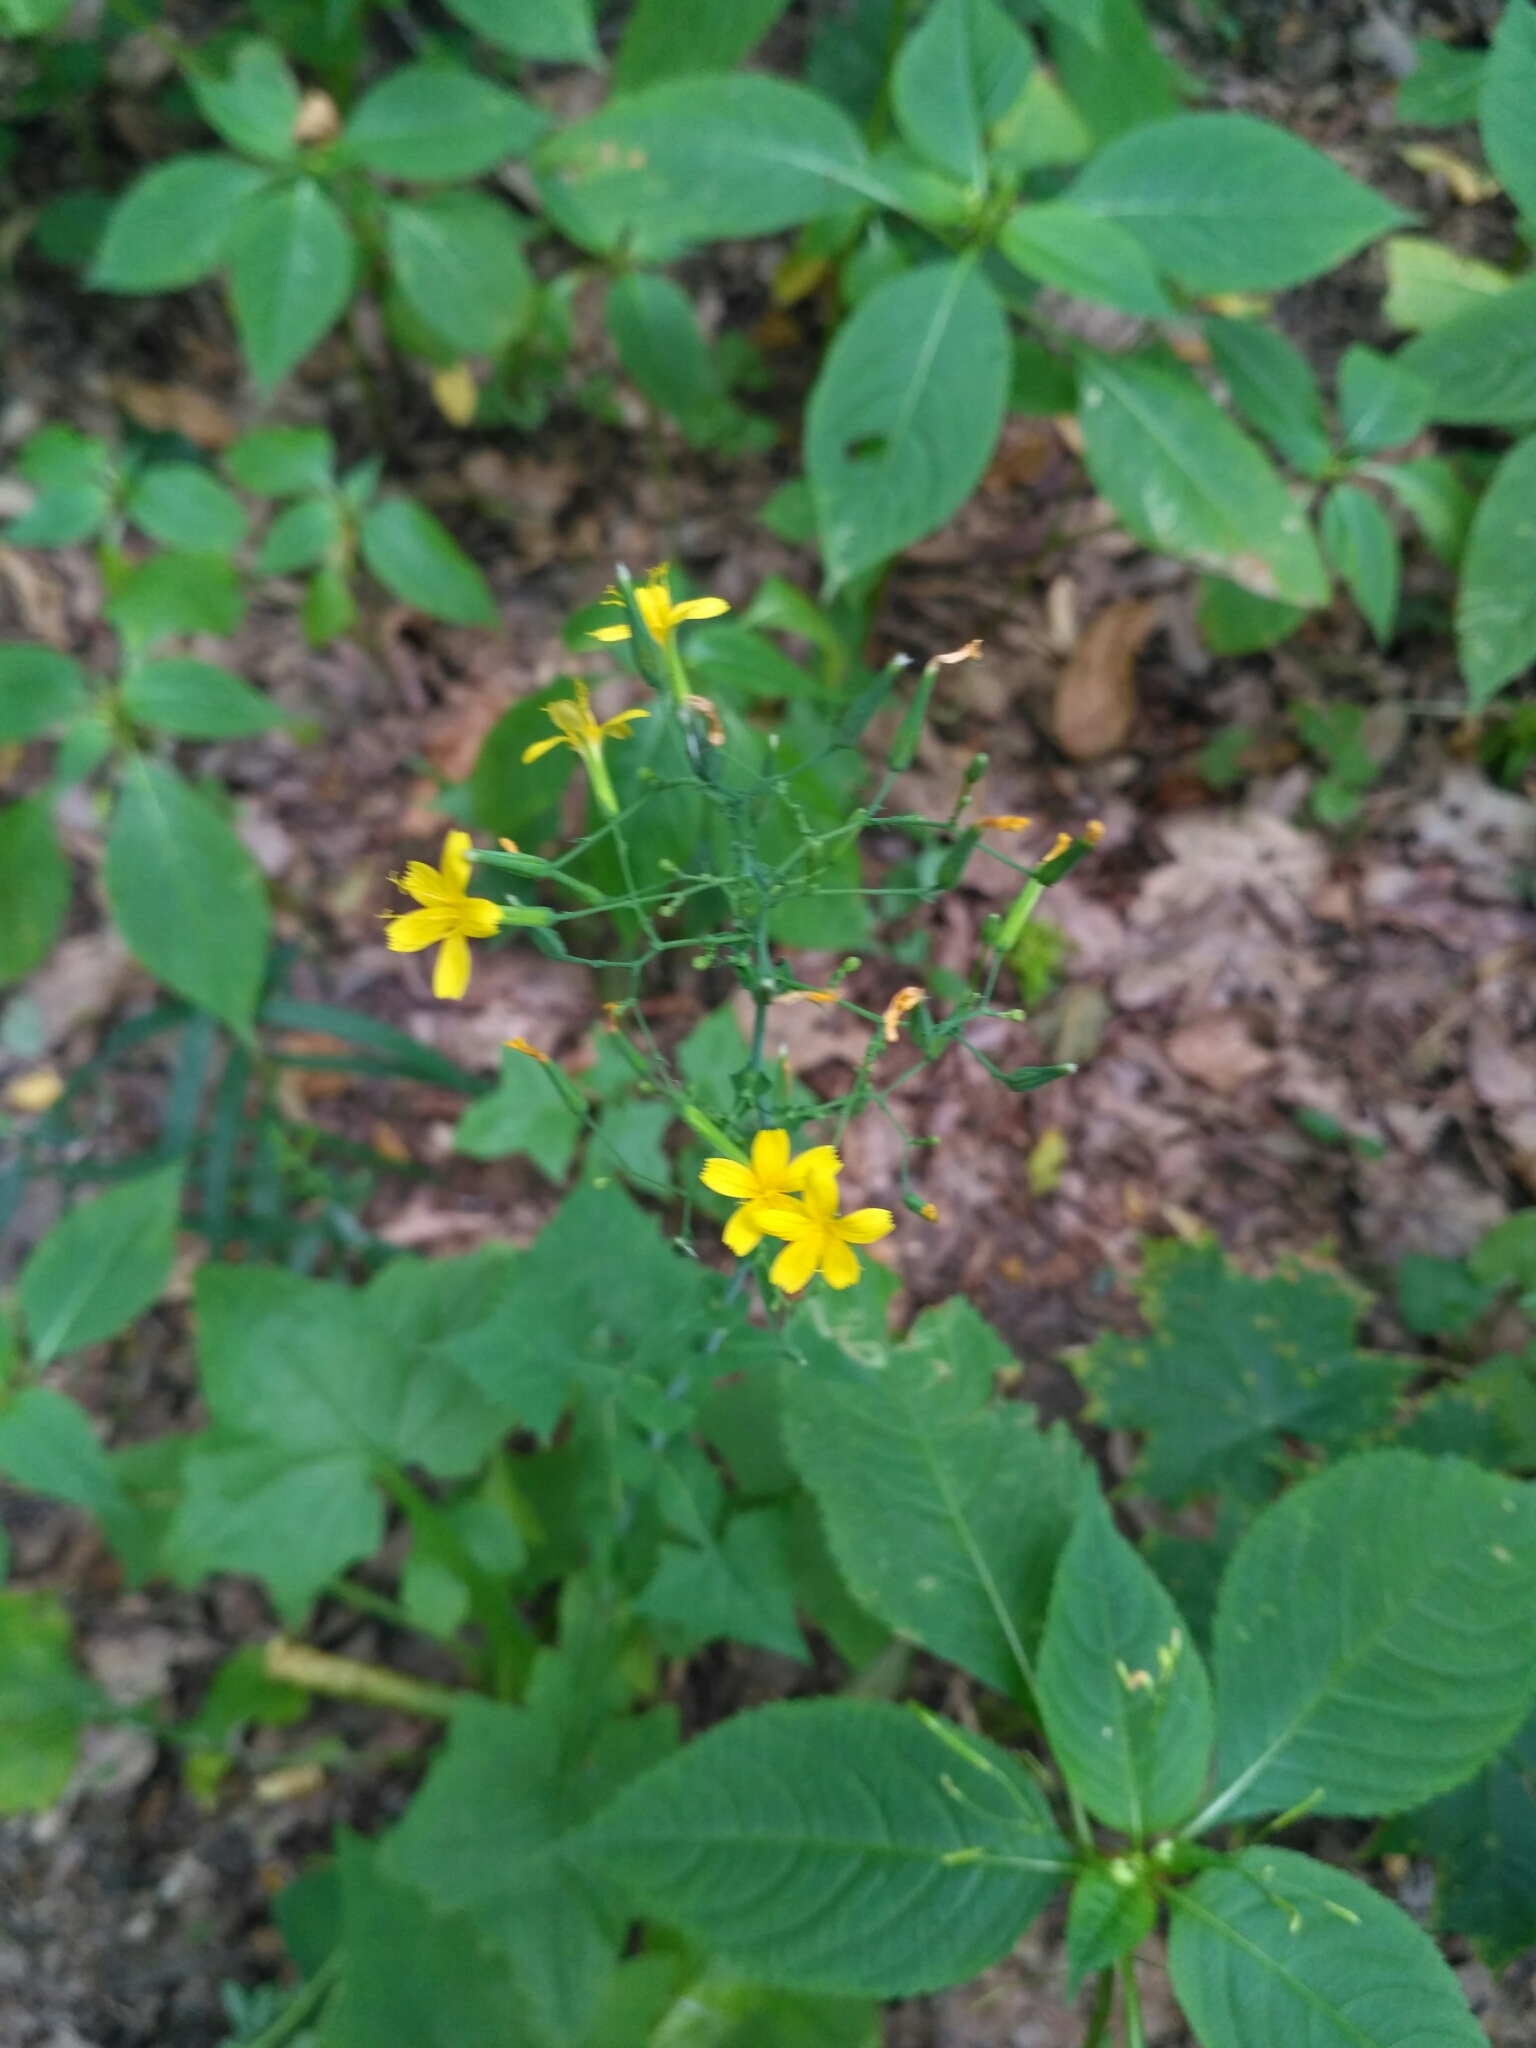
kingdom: Plantae
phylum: Tracheophyta
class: Magnoliopsida
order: Asterales
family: Asteraceae
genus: Mycelis
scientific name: Mycelis muralis
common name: Wall lettuce
